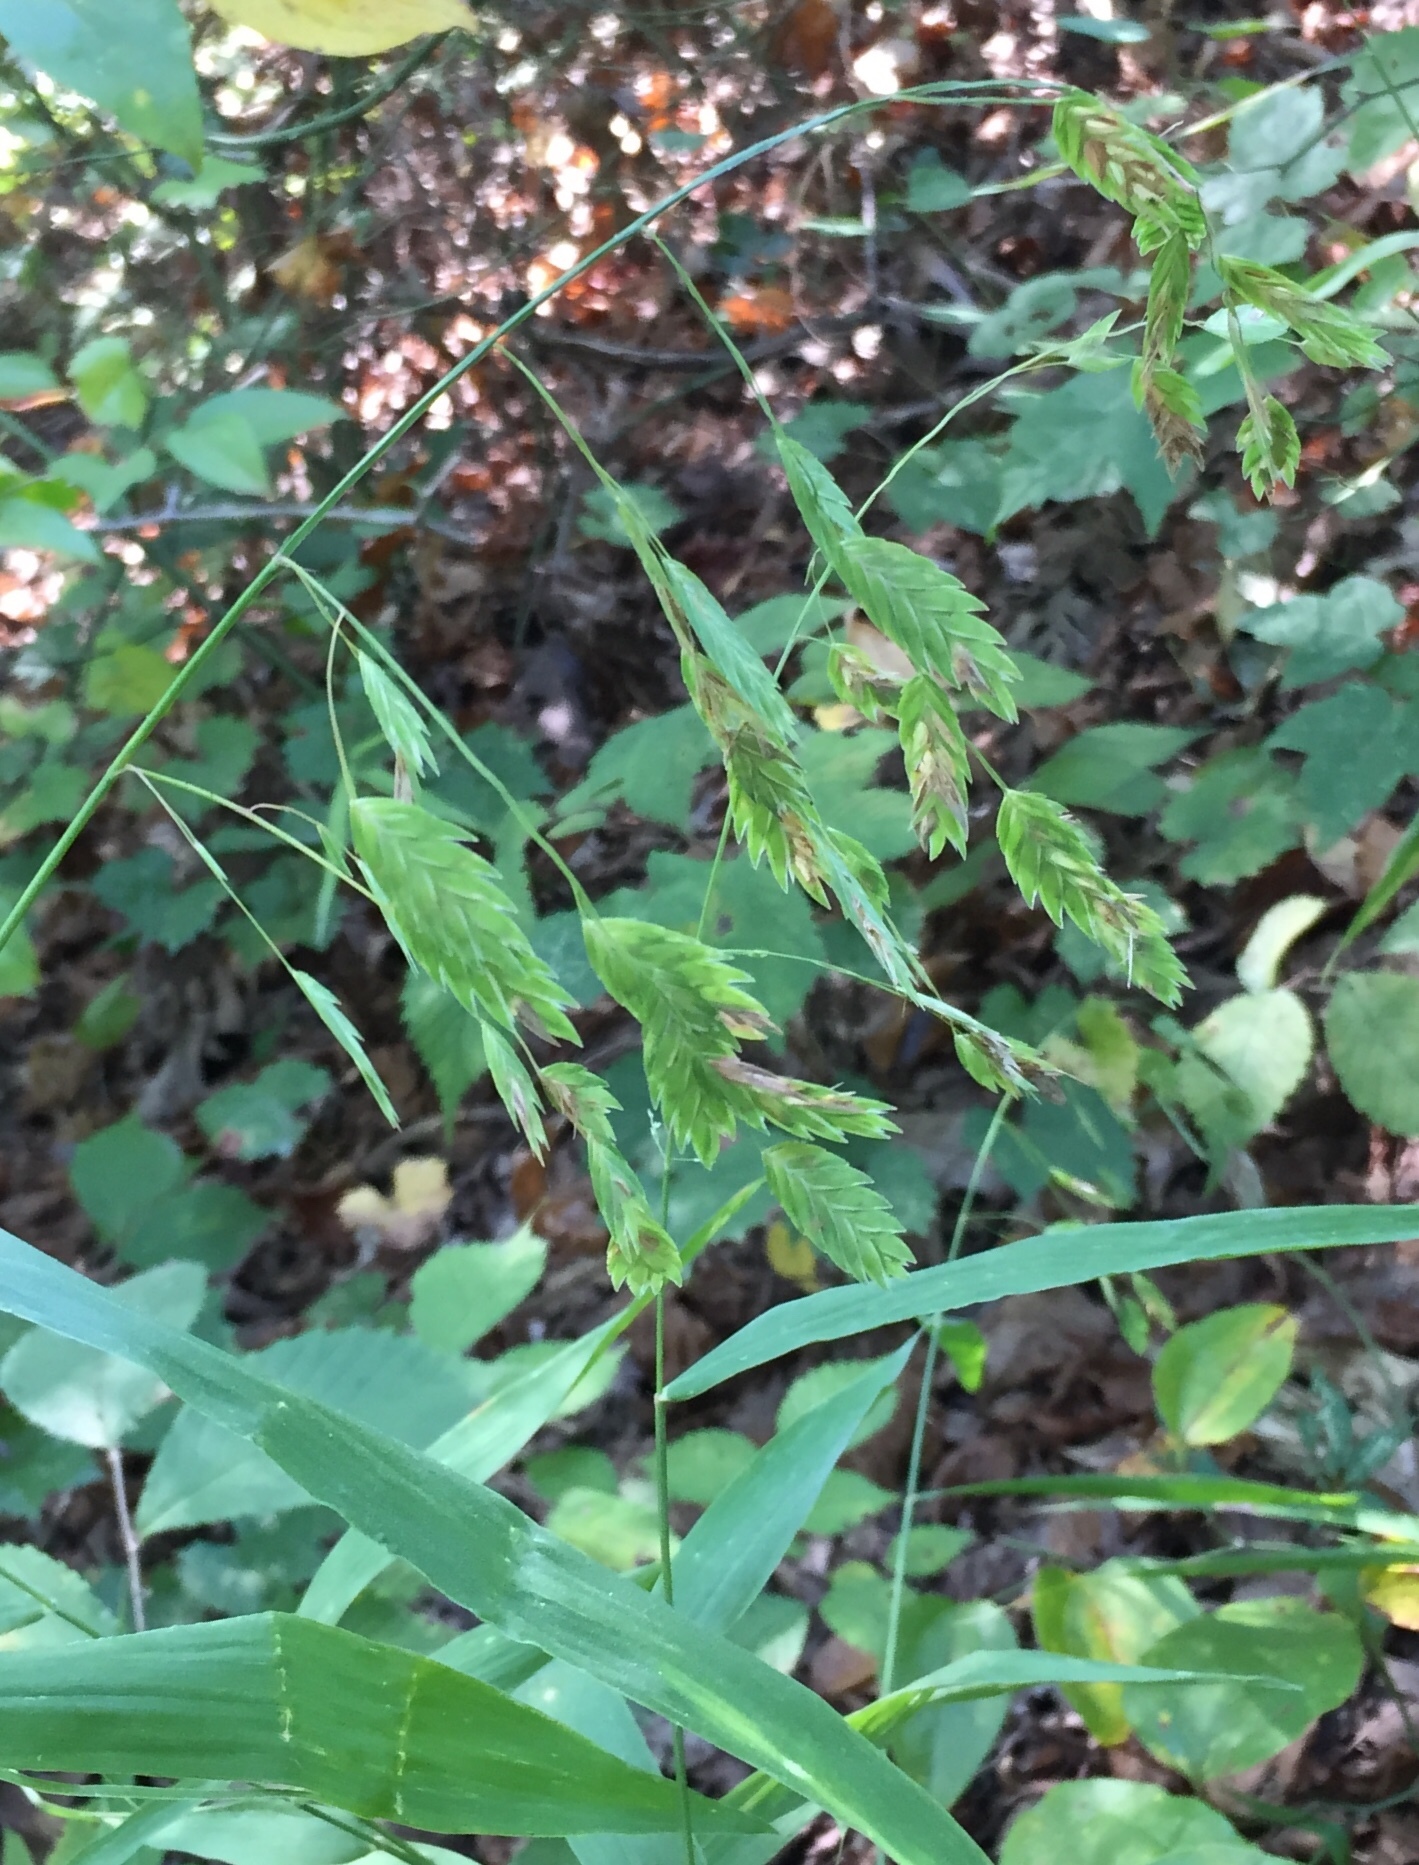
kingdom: Plantae
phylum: Tracheophyta
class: Liliopsida
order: Poales
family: Poaceae
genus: Chasmanthium
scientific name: Chasmanthium latifolium
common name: Broad-leaved chasmanthium
